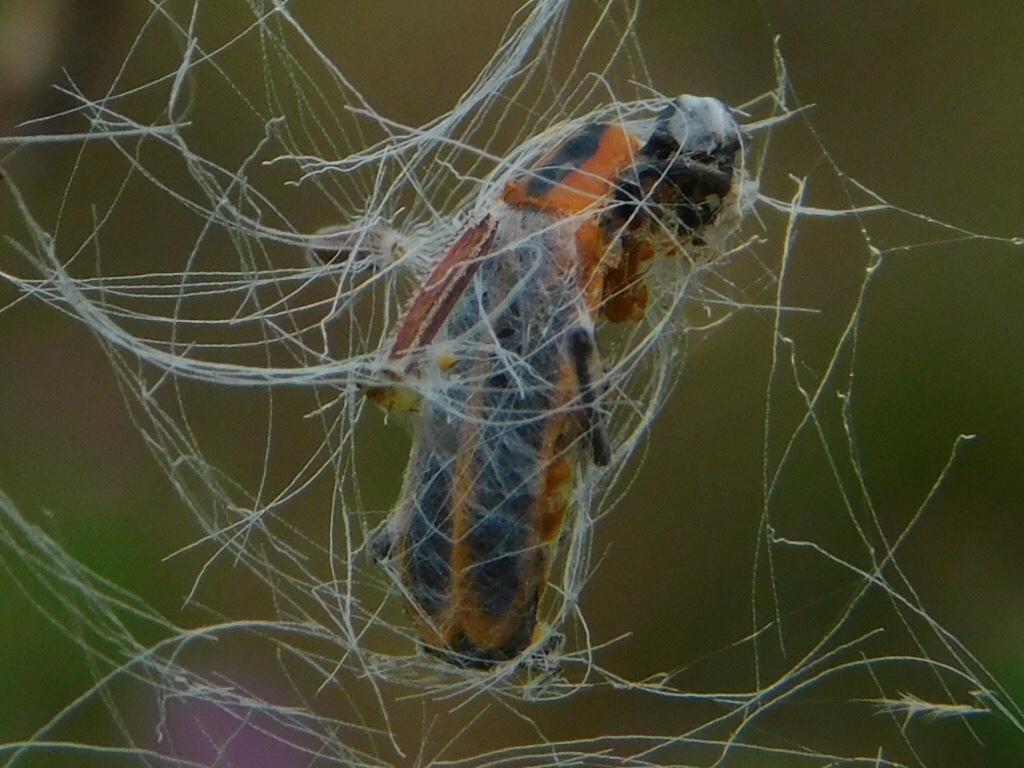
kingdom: Animalia
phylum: Arthropoda
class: Insecta
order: Coleoptera
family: Cantharidae
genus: Chauliognathus
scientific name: Chauliognathus marginatus
